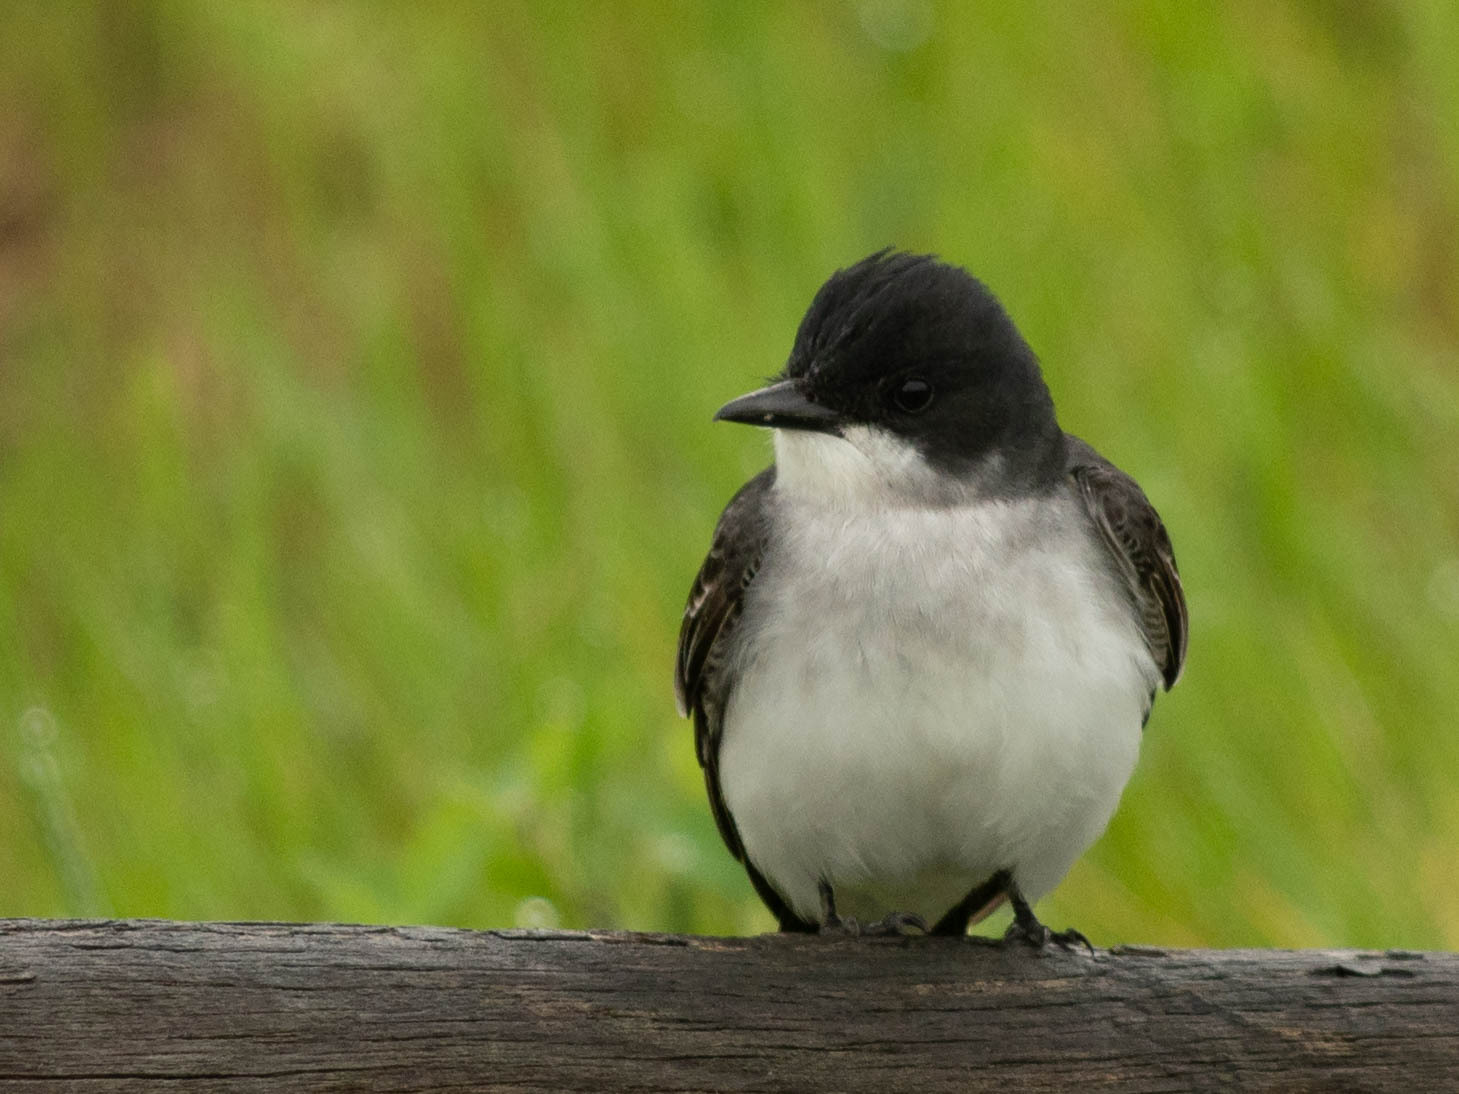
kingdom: Animalia
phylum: Chordata
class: Aves
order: Passeriformes
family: Tyrannidae
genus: Tyrannus
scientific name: Tyrannus tyrannus
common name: Eastern kingbird
